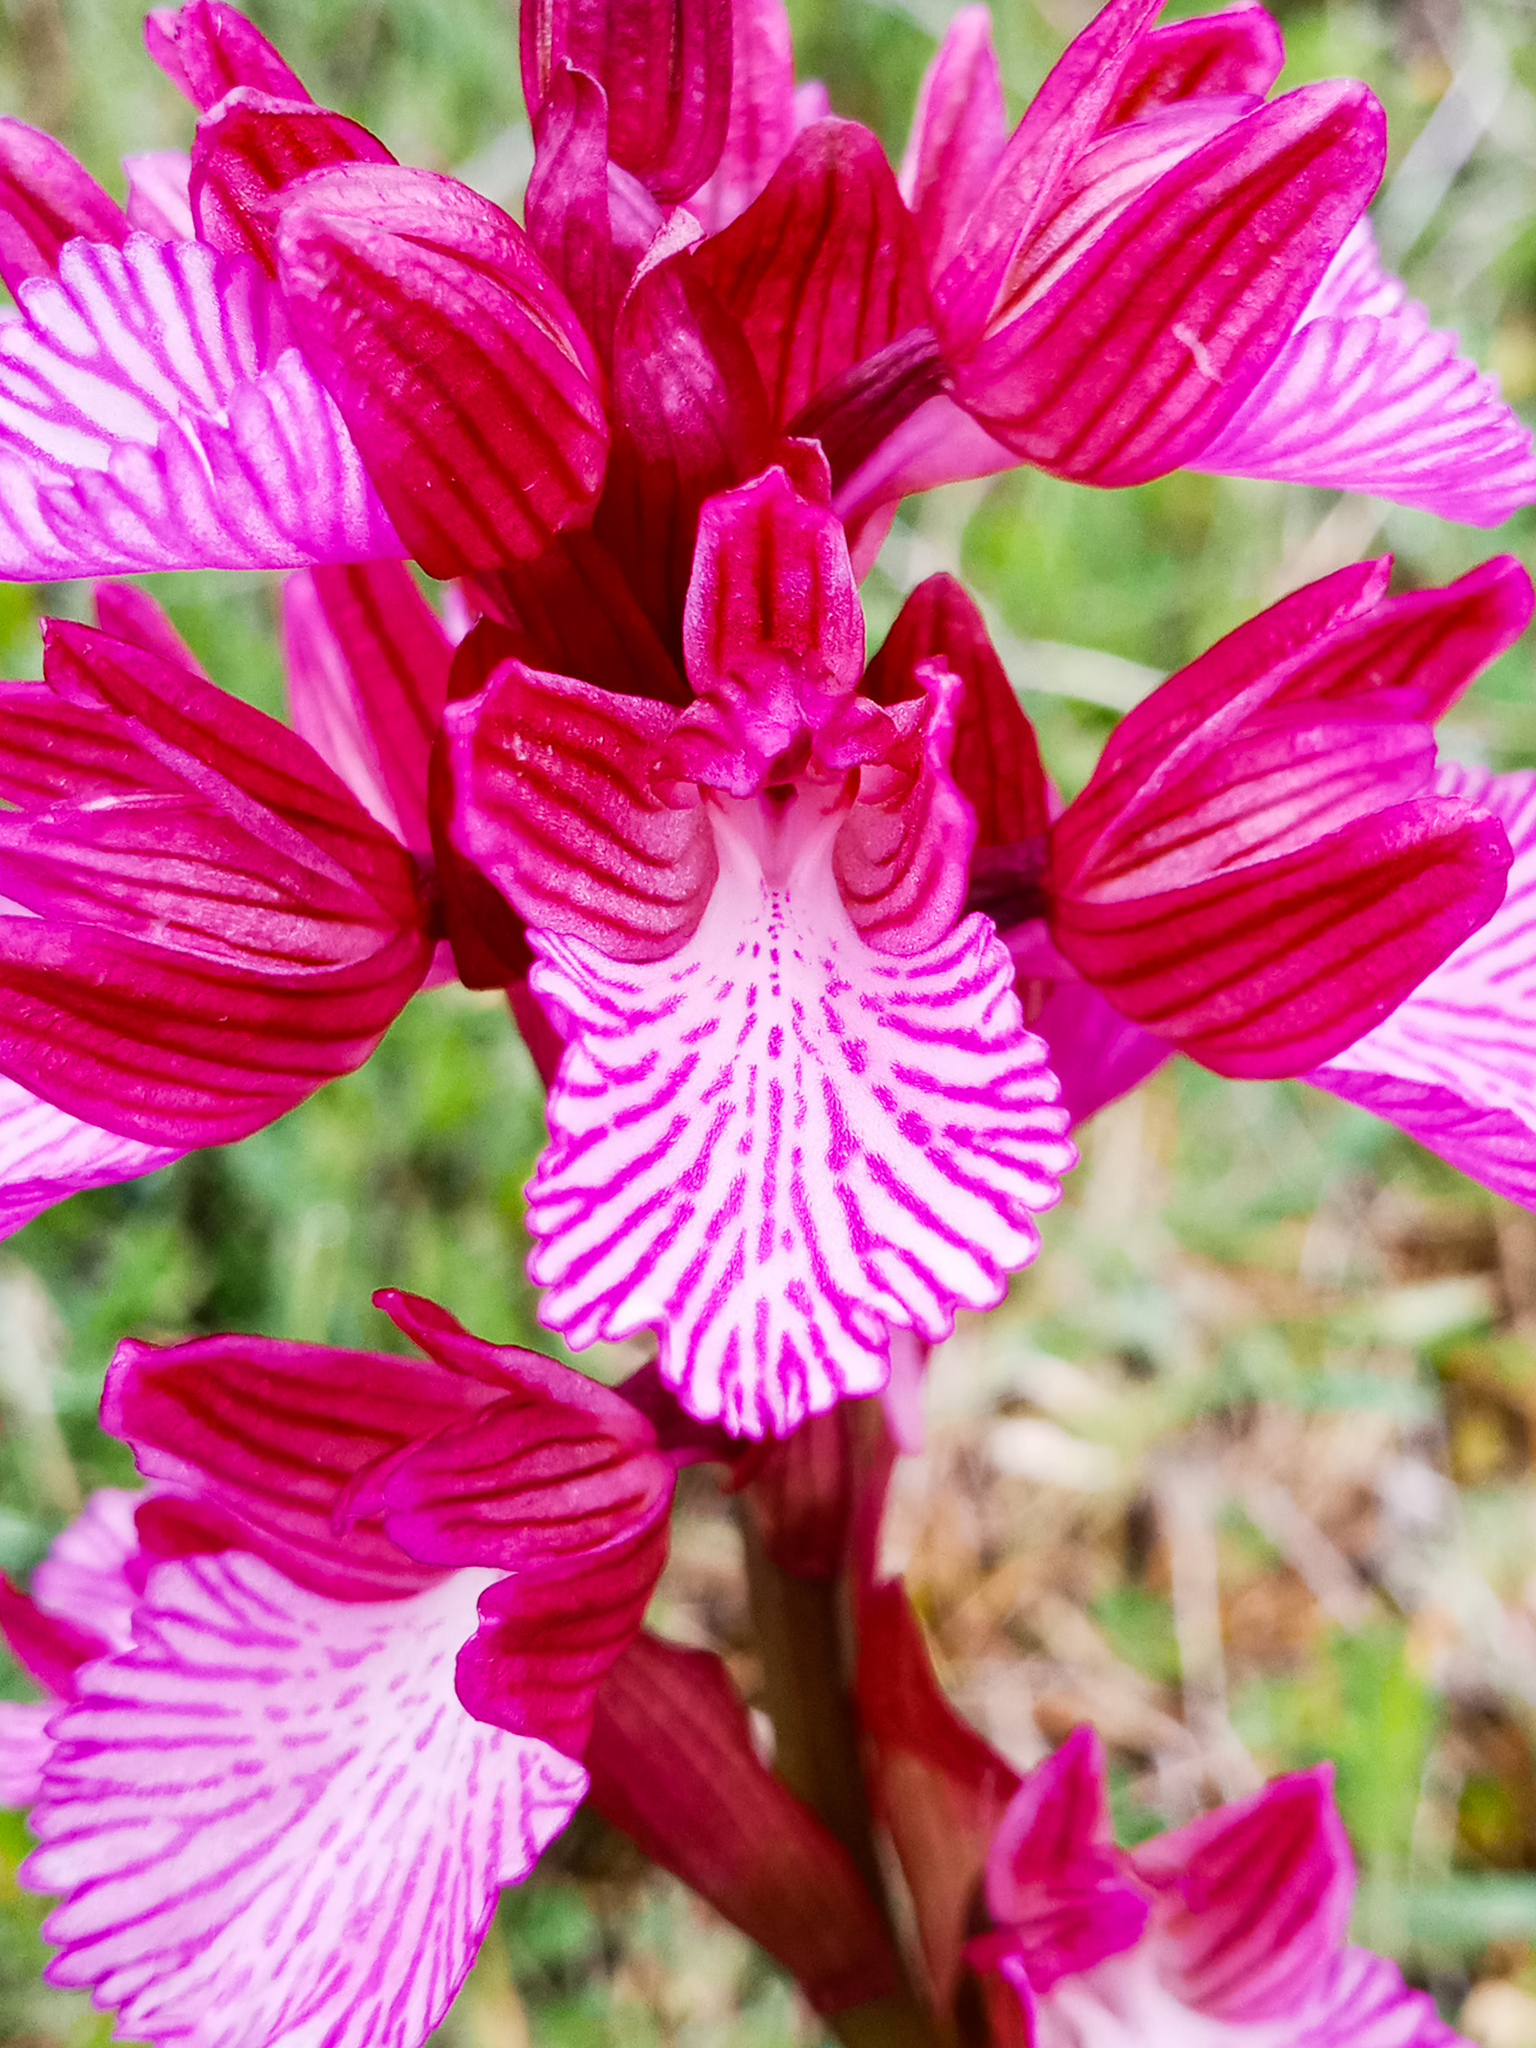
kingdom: Plantae
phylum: Tracheophyta
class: Liliopsida
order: Asparagales
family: Orchidaceae
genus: Anacamptis
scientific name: Anacamptis papilionacea
